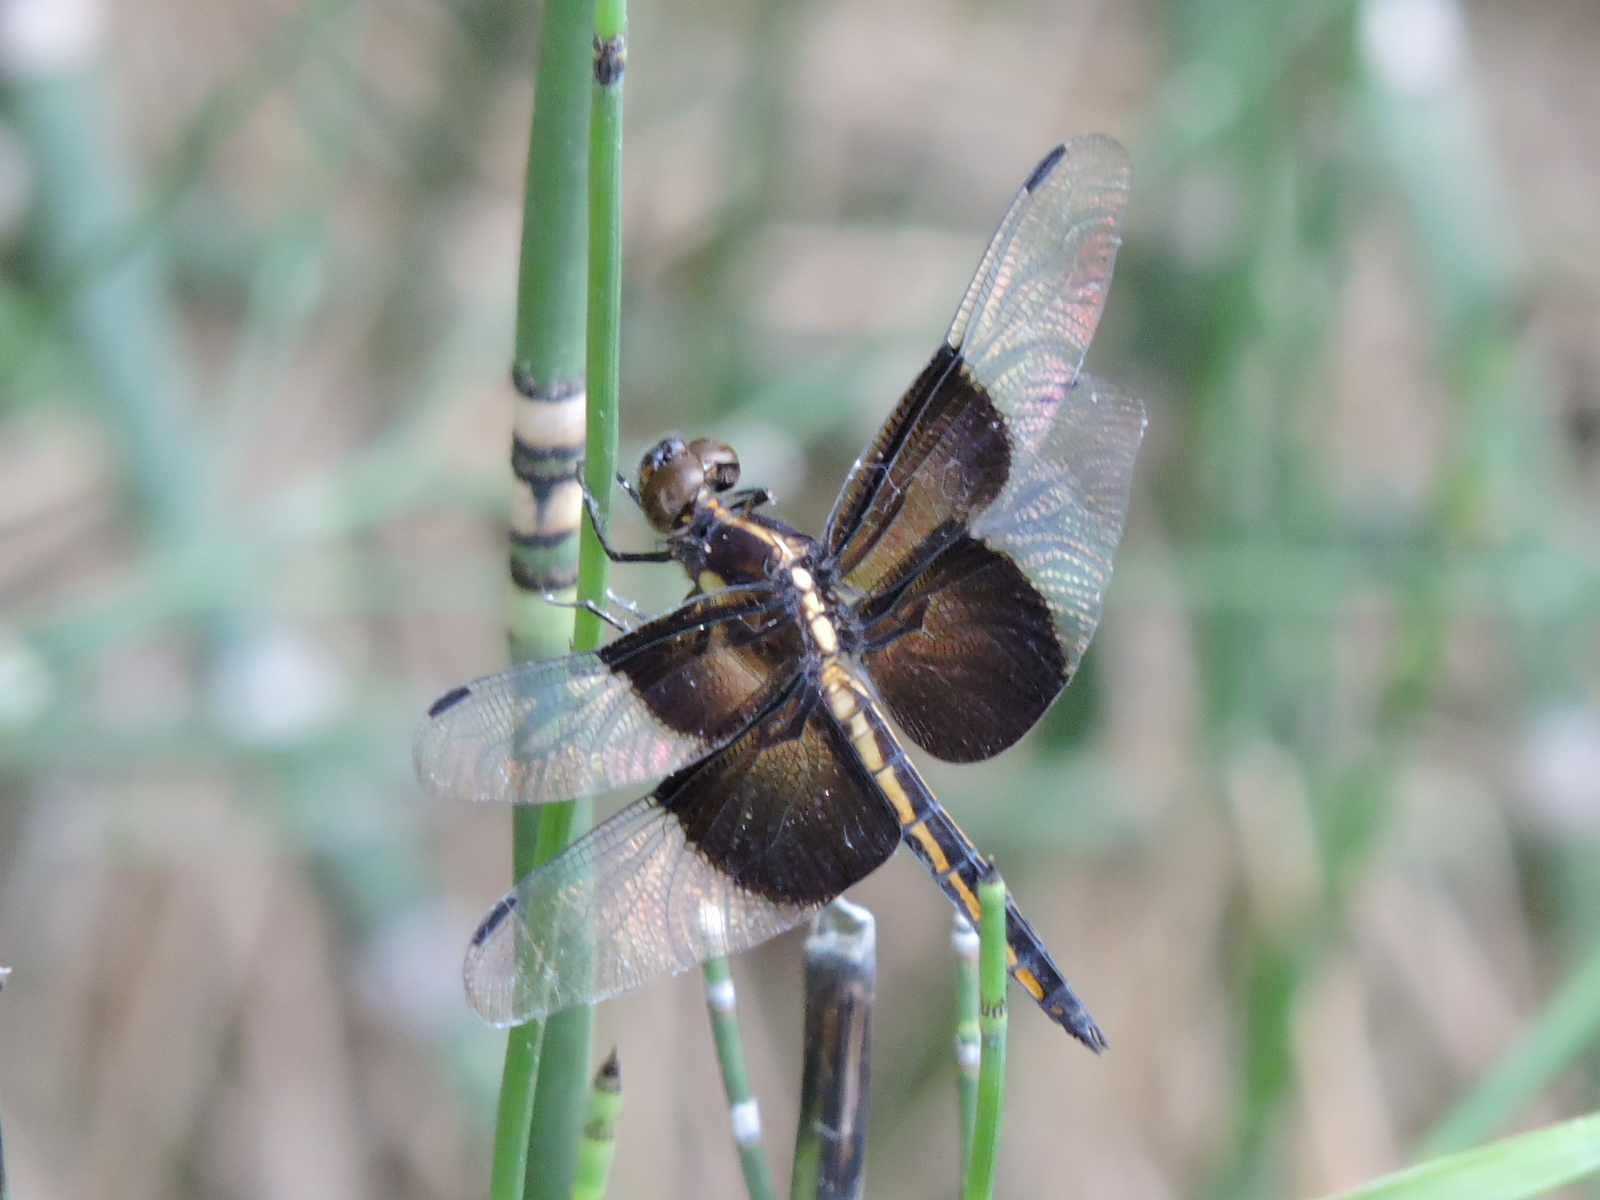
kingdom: Animalia
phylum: Arthropoda
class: Insecta
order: Odonata
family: Libellulidae
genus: Libellula
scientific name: Libellula luctuosa
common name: Widow skimmer
